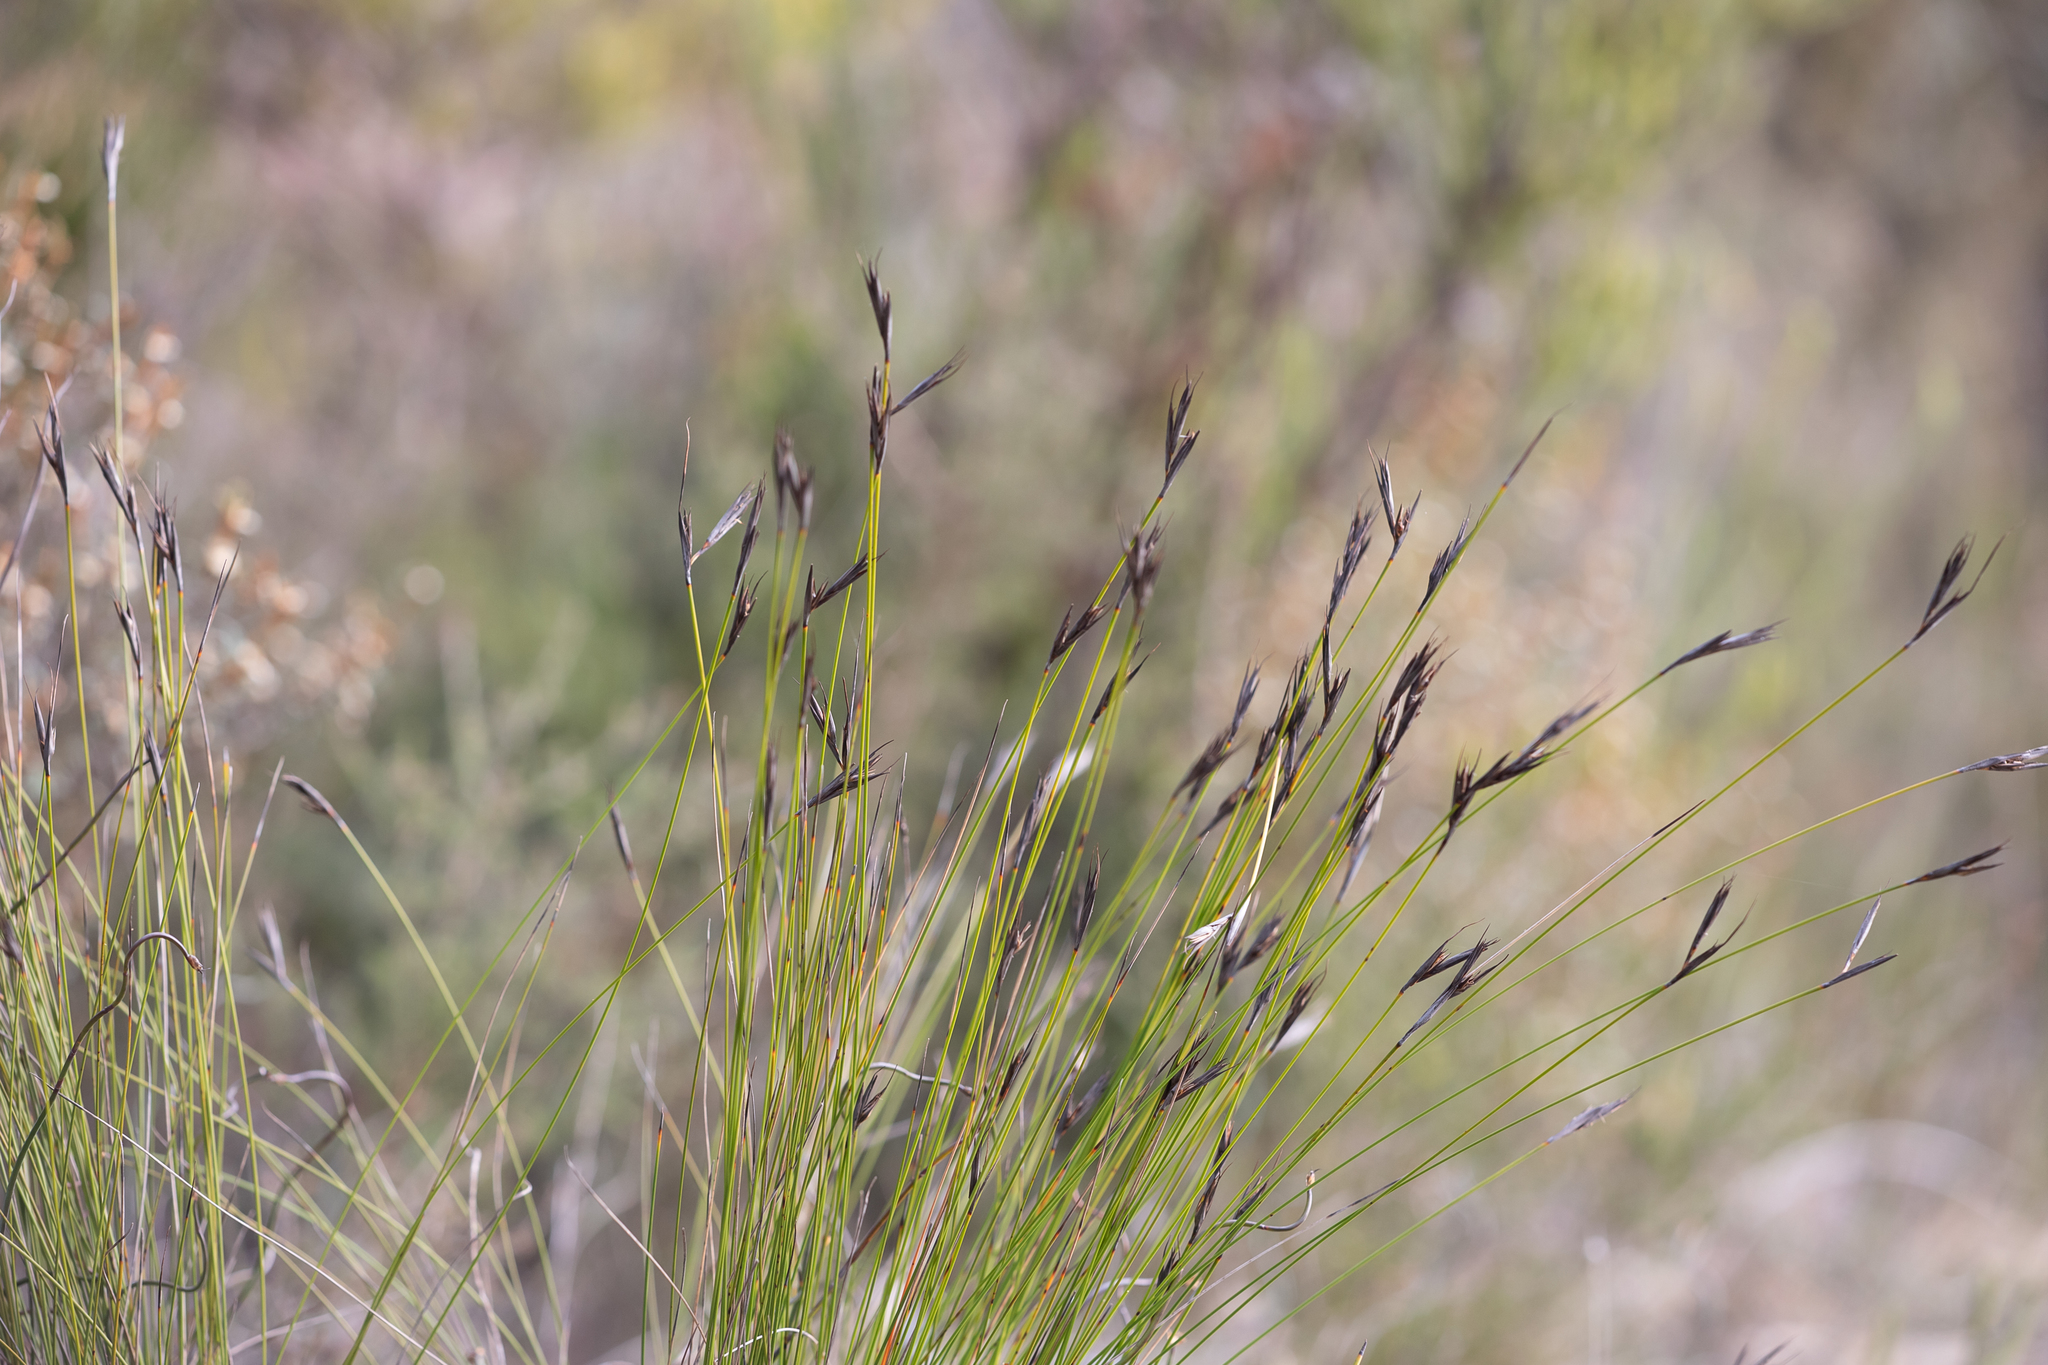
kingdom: Plantae
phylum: Tracheophyta
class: Liliopsida
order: Poales
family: Cyperaceae
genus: Lepidosperma
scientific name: Lepidosperma carphoides
